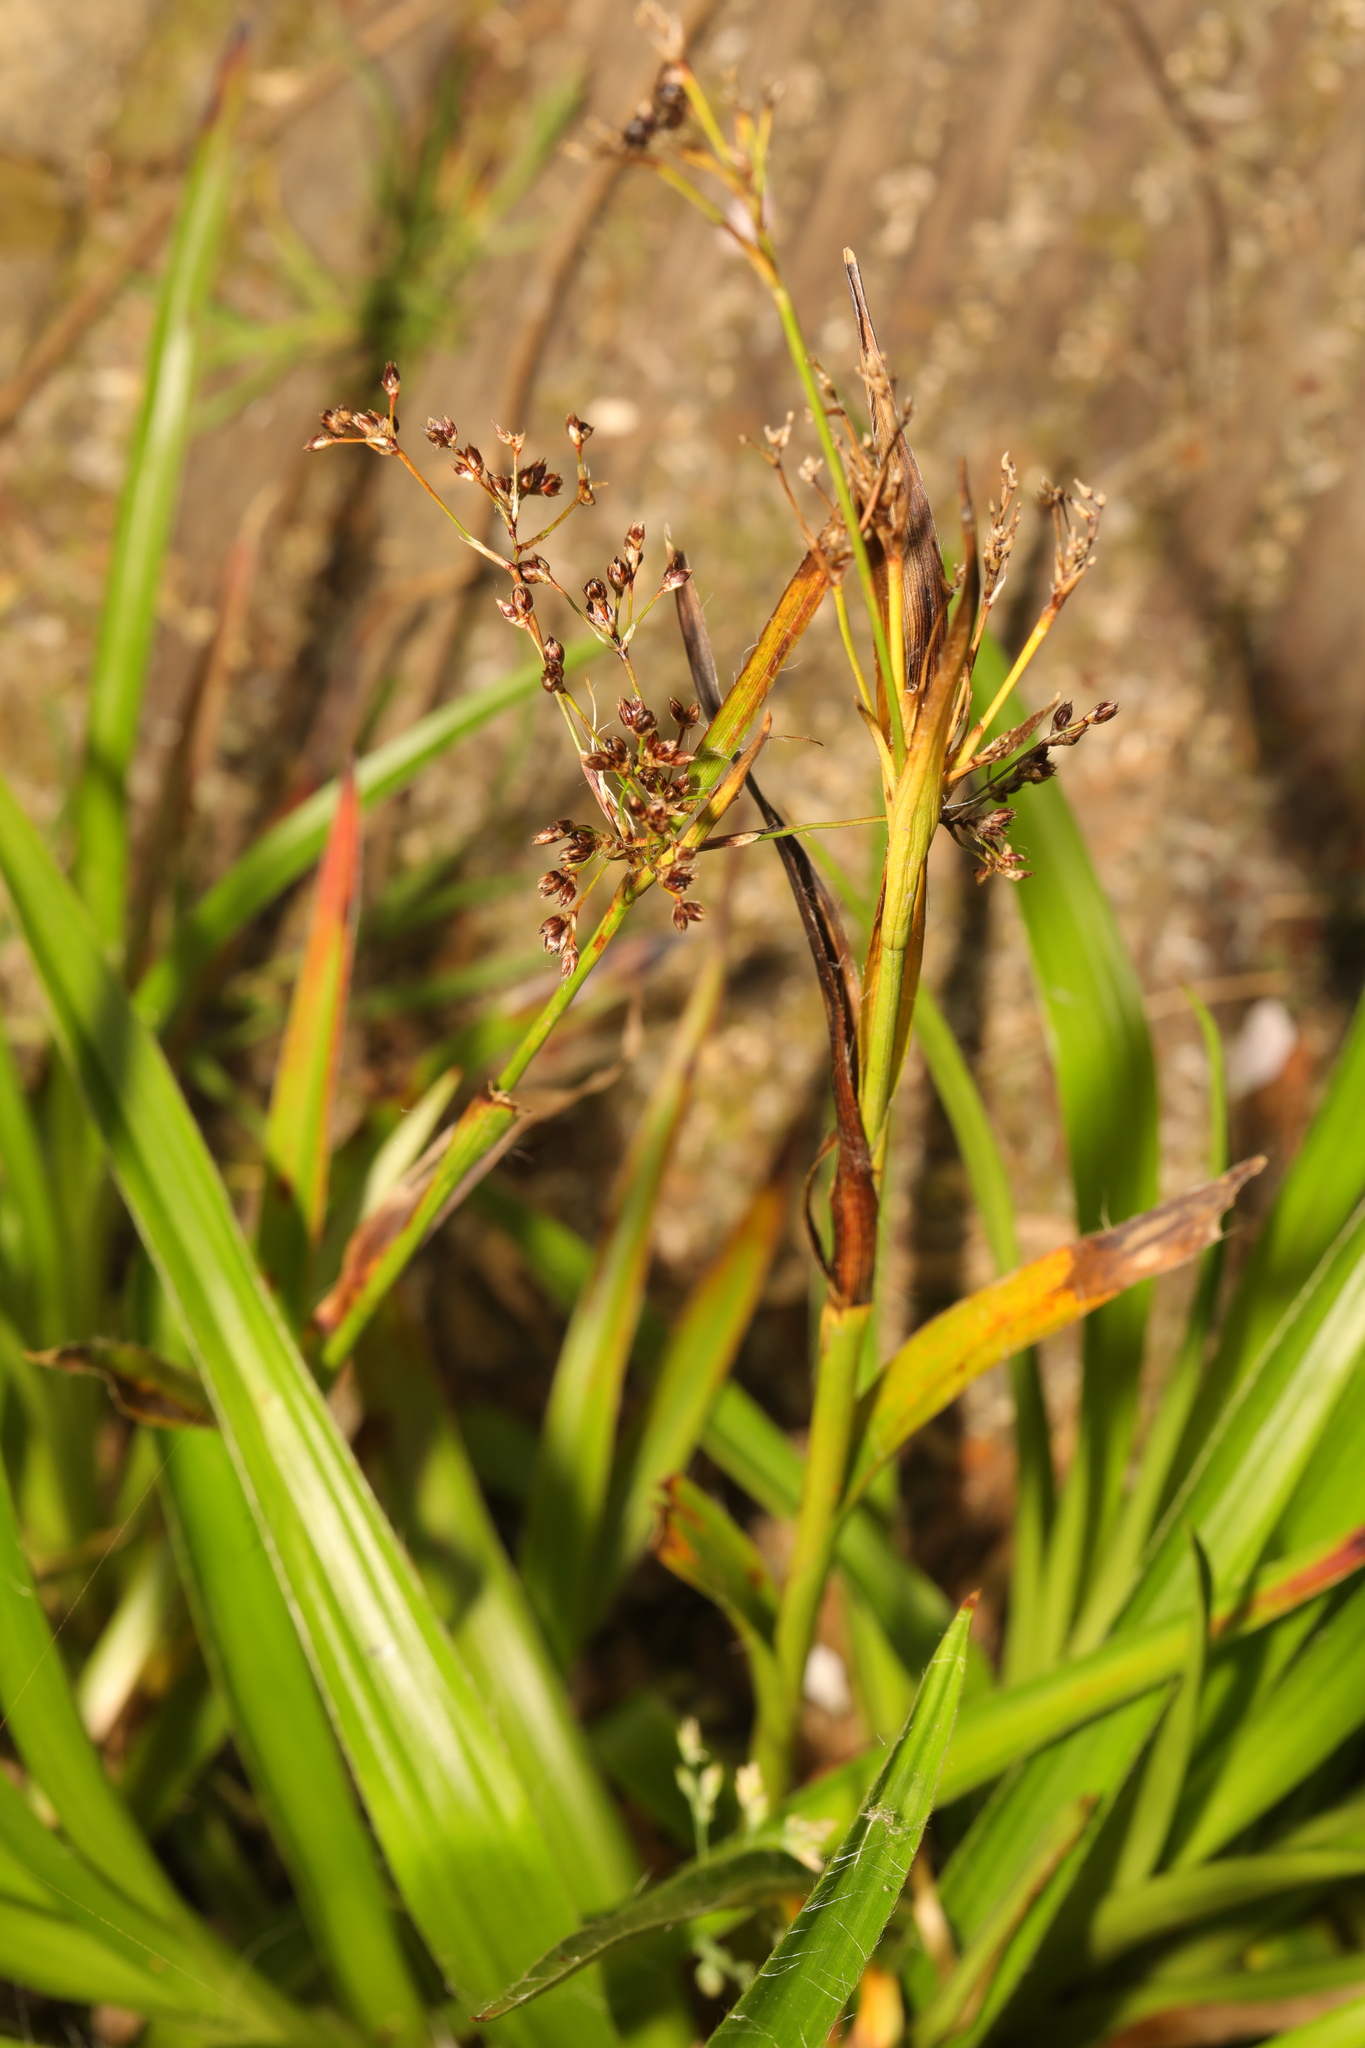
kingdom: Plantae
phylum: Tracheophyta
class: Liliopsida
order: Poales
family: Juncaceae
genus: Luzula
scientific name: Luzula sylvatica
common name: Great wood-rush
